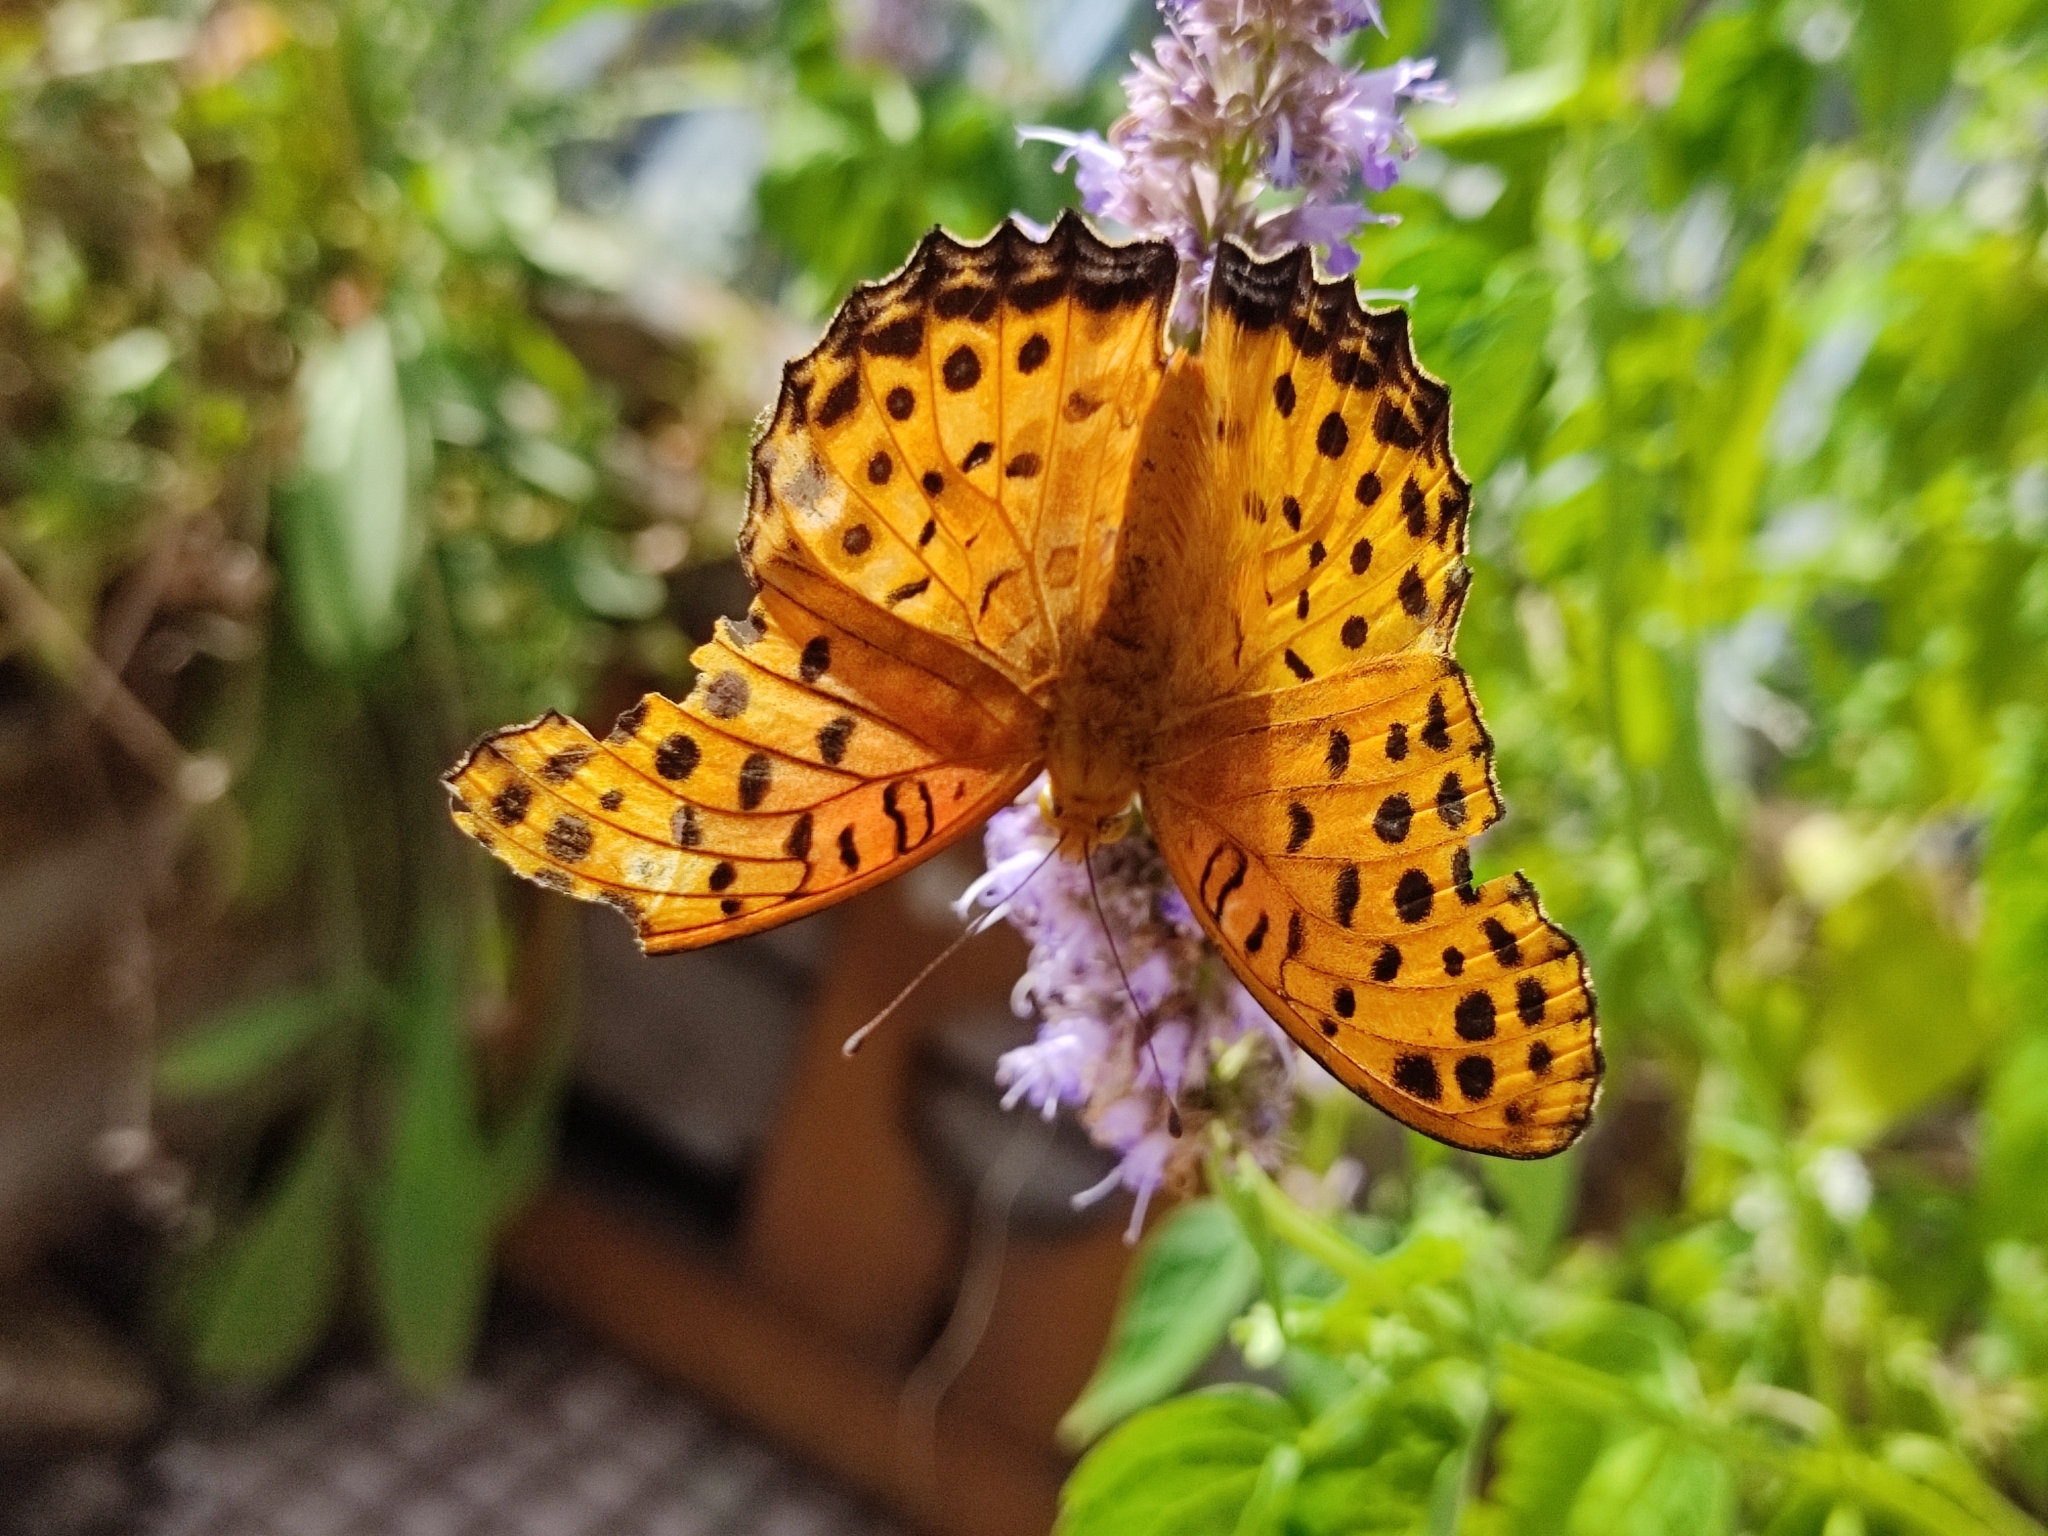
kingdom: Animalia
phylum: Arthropoda
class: Insecta
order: Lepidoptera
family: Nymphalidae
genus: Argynnis
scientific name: Argynnis hyperbius
